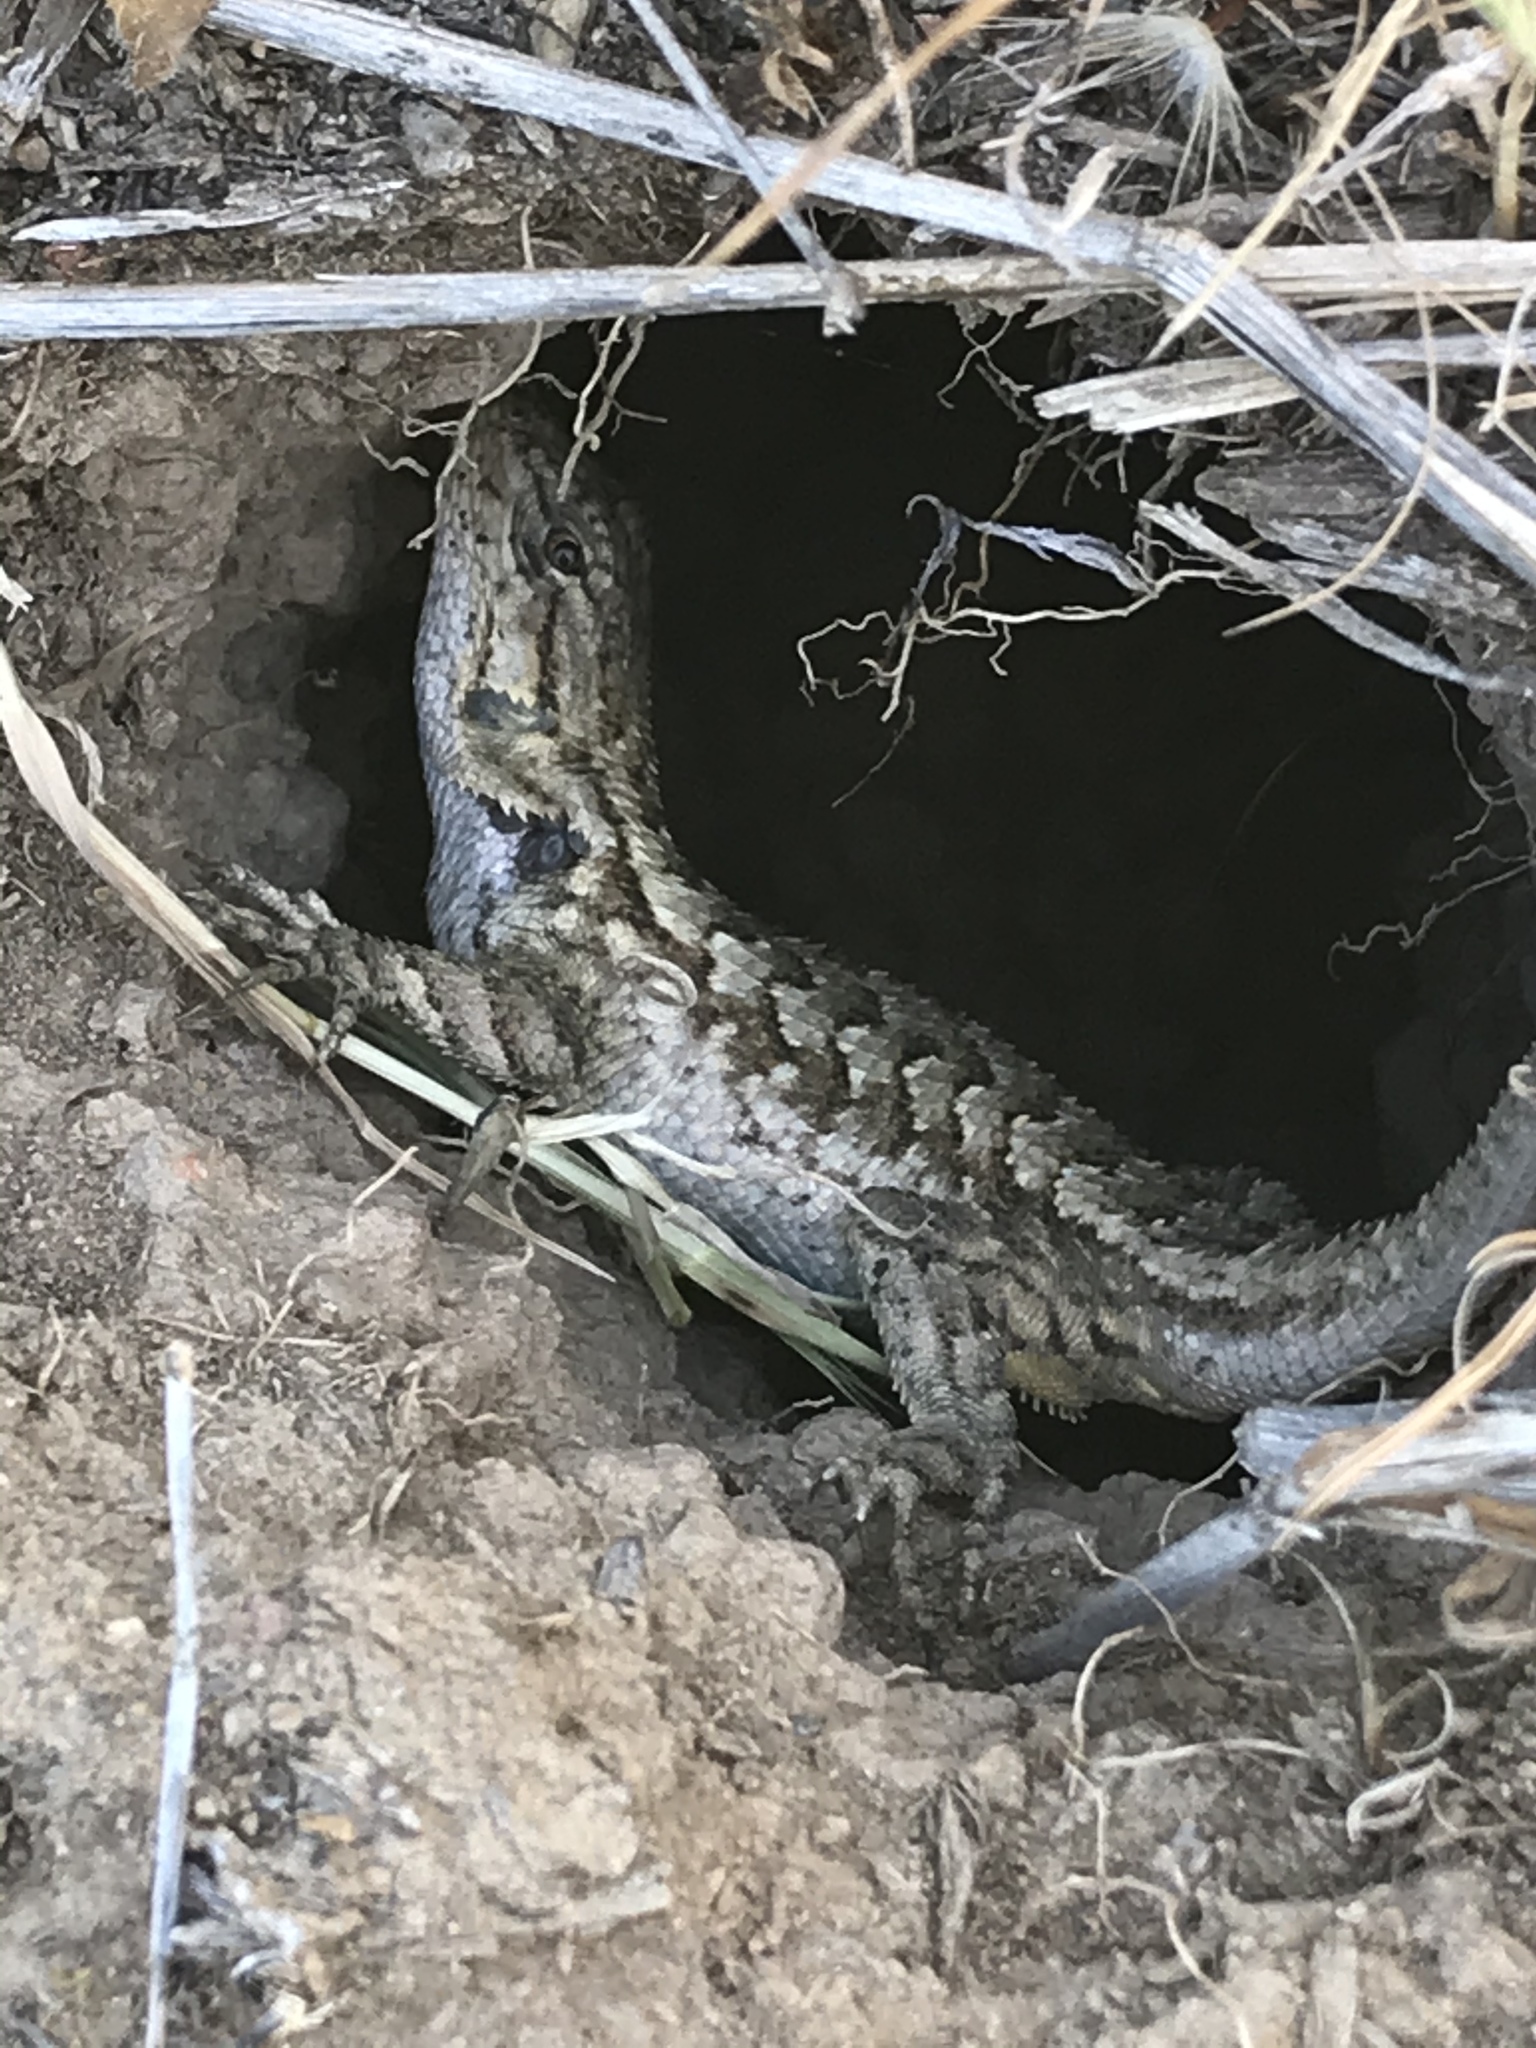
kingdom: Animalia
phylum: Chordata
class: Squamata
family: Phrynosomatidae
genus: Sceloporus
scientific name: Sceloporus occidentalis
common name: Western fence lizard
